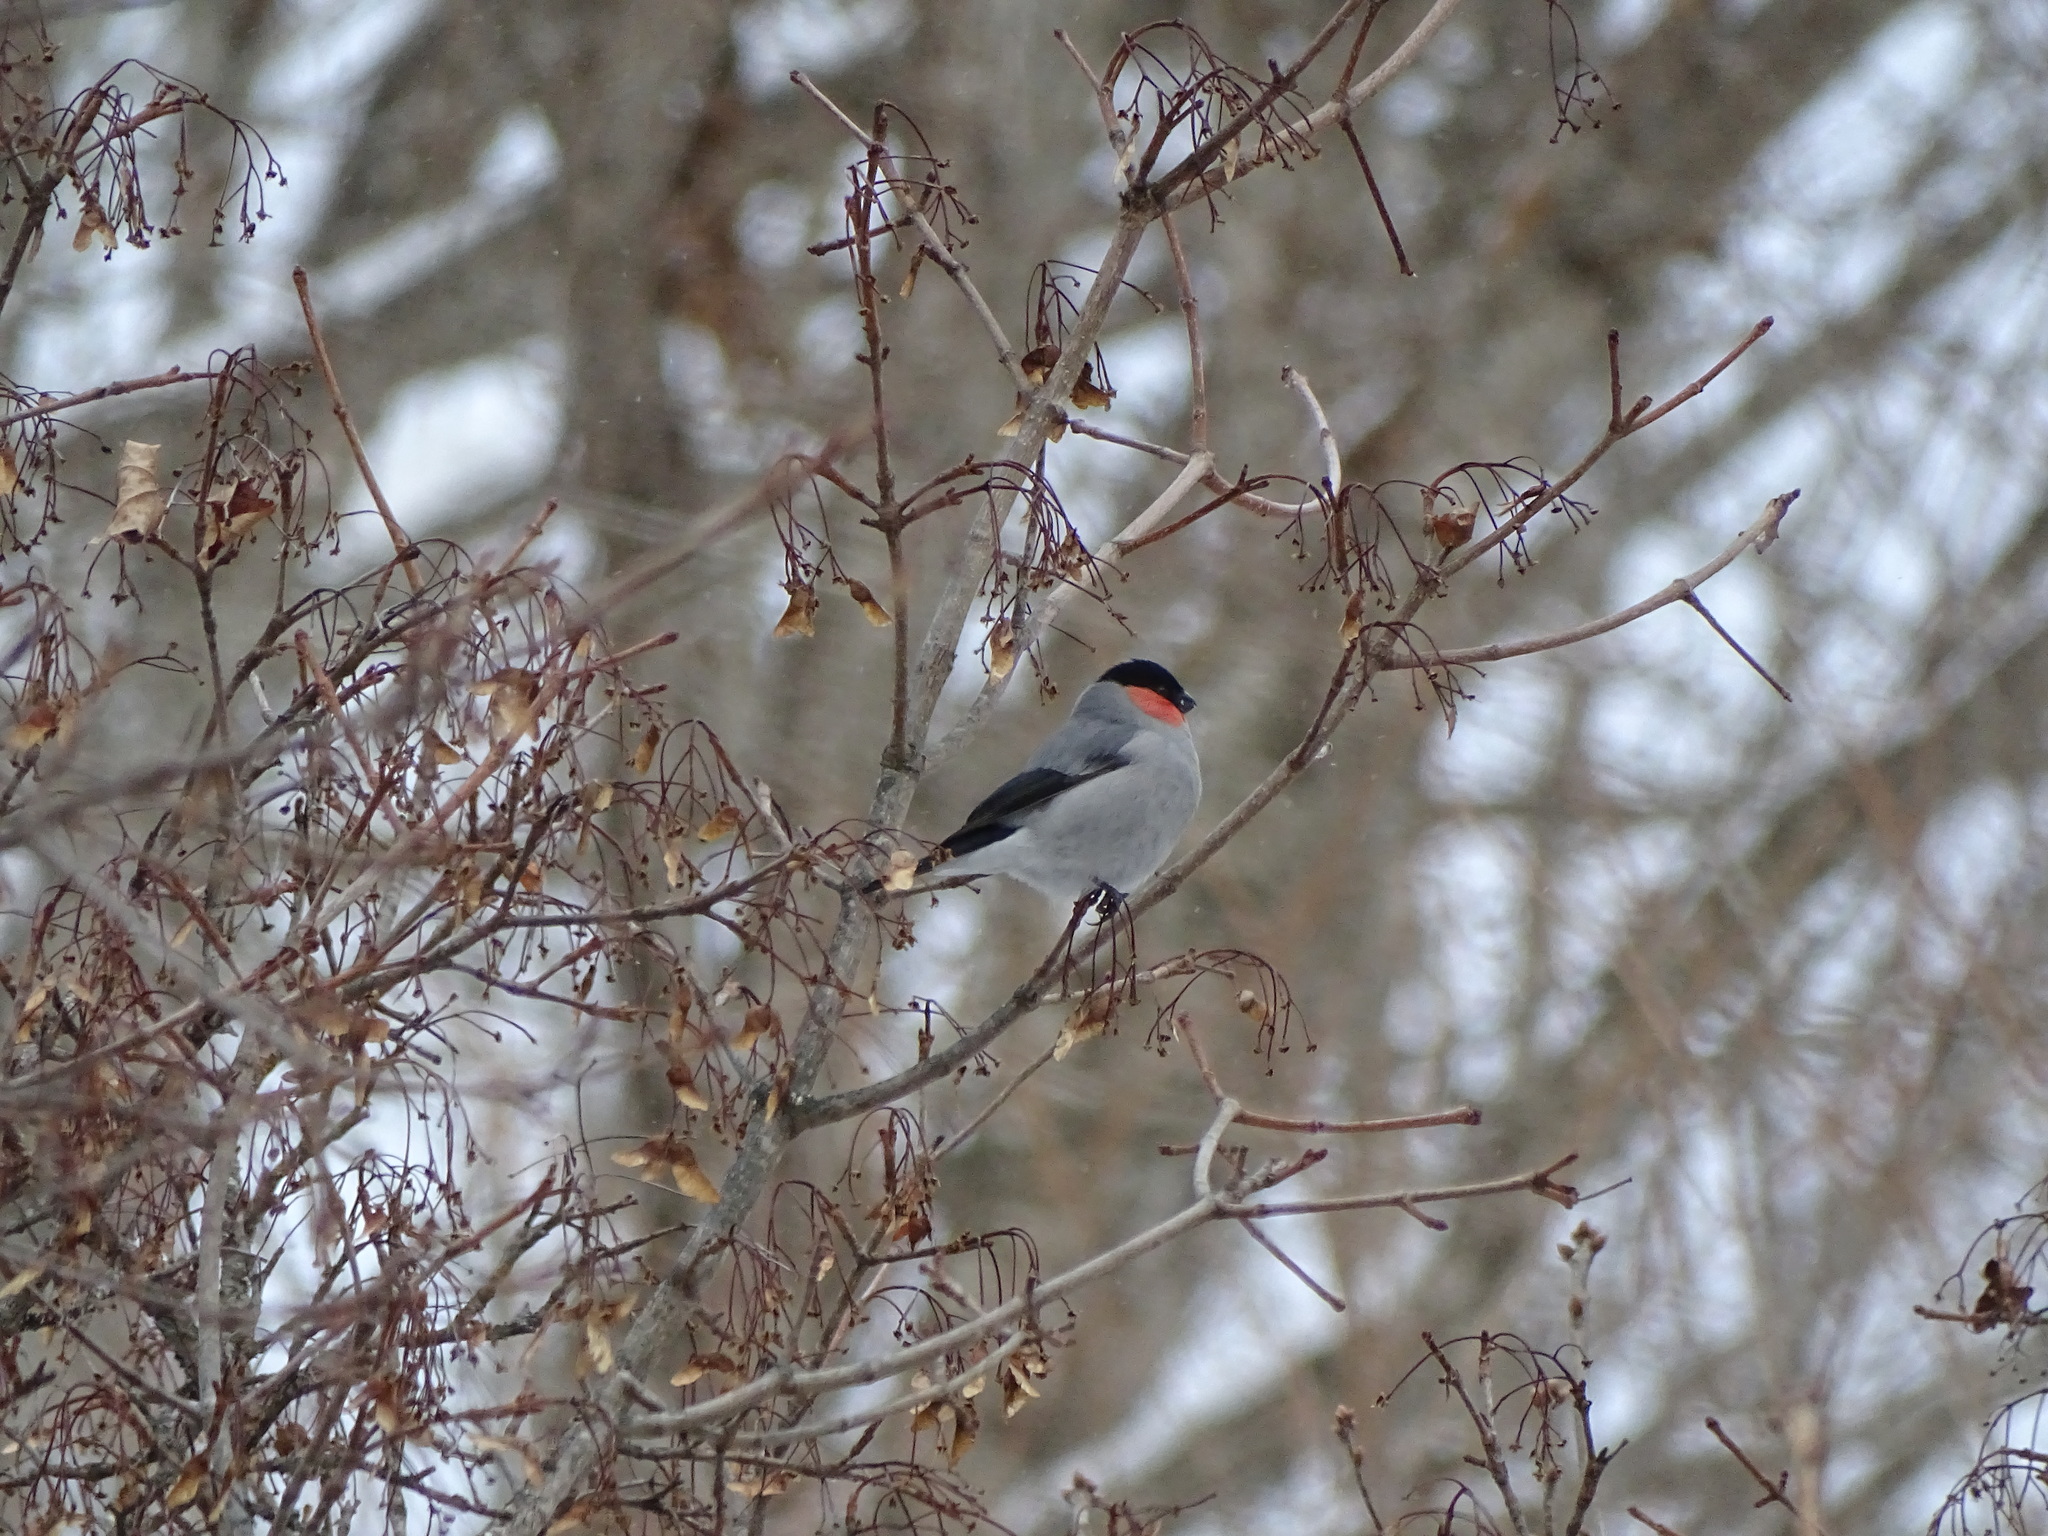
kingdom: Animalia
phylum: Chordata
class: Aves
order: Passeriformes
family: Fringillidae
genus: Pyrrhula
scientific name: Pyrrhula pyrrhula
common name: Eurasian bullfinch
